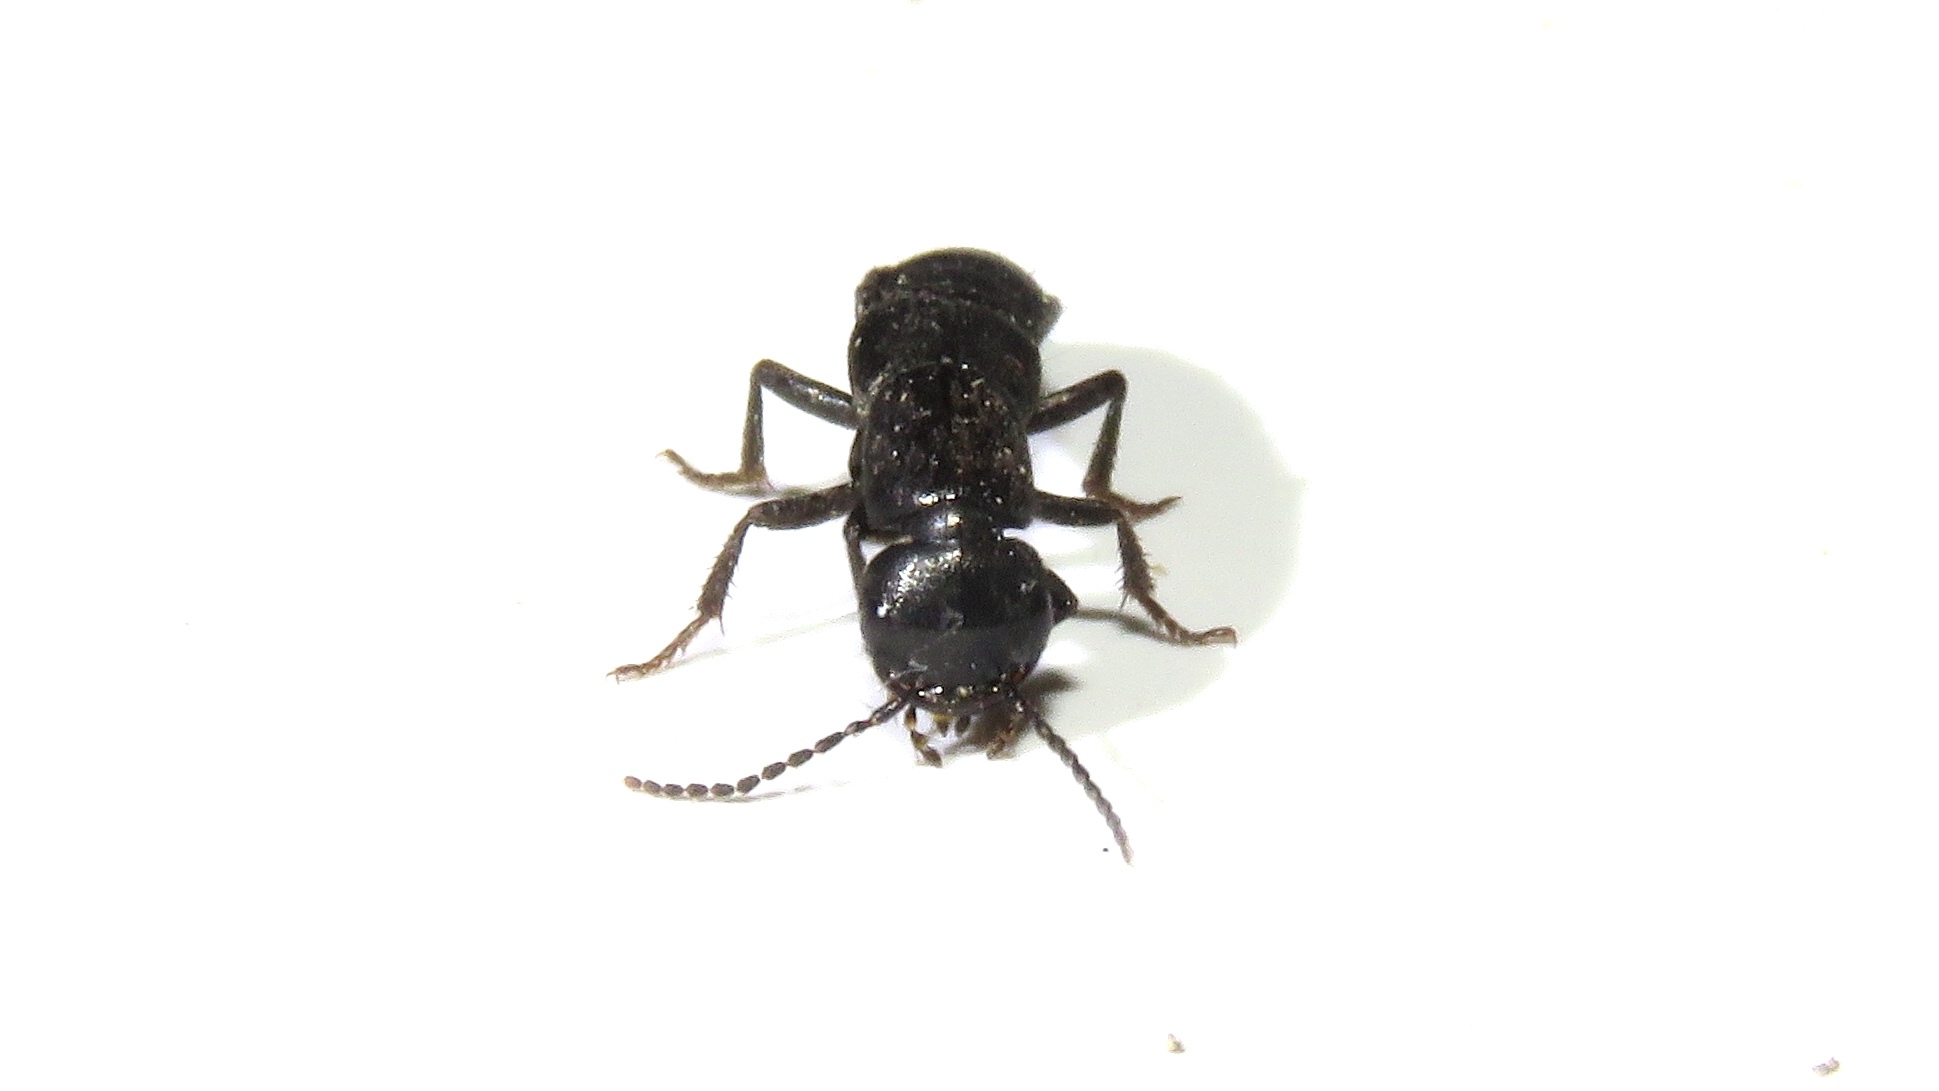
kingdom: Animalia
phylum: Arthropoda
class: Insecta
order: Coleoptera
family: Staphylinidae
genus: Tasgius
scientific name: Tasgius melanarius
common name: Rove beetle
